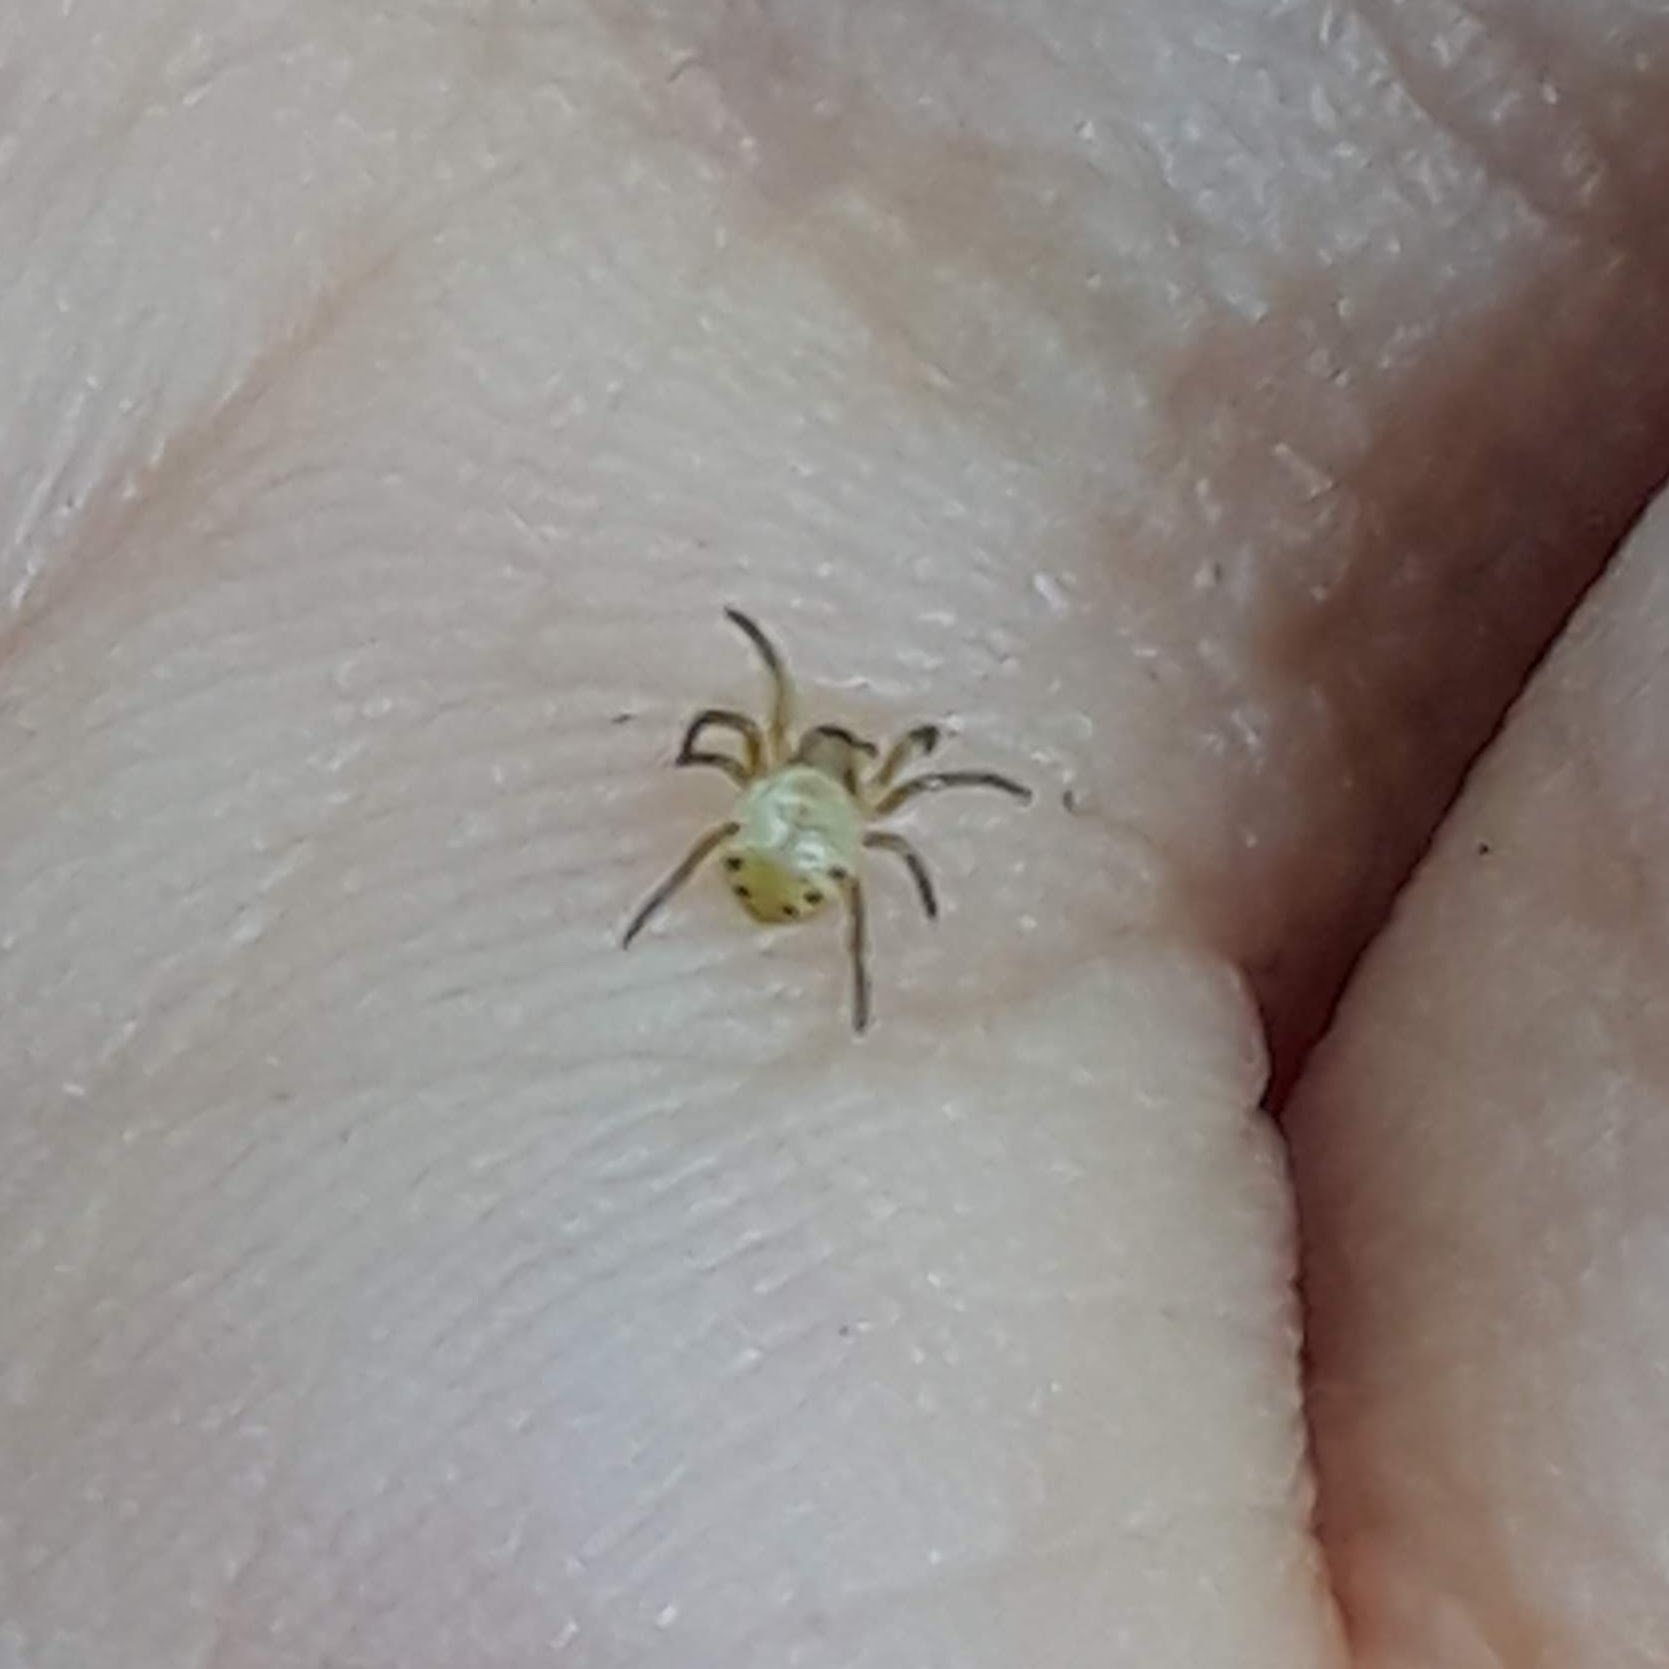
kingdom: Animalia
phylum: Arthropoda
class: Arachnida
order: Araneae
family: Araneidae
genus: Araniella
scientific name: Araniella displicata
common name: Sixspotted orb weaver
